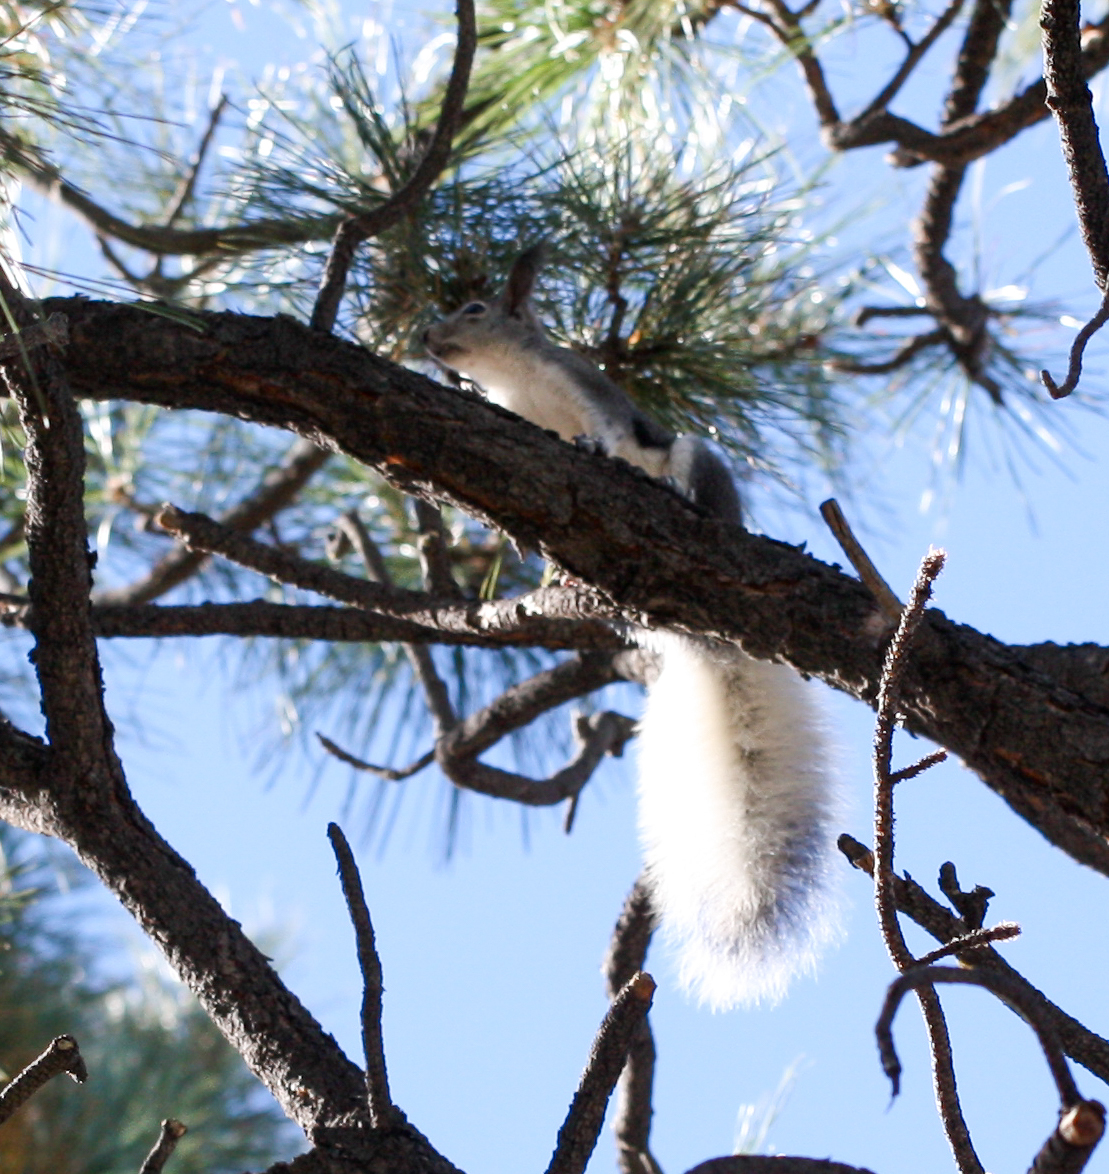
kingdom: Animalia
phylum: Chordata
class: Mammalia
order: Rodentia
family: Sciuridae
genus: Sciurus
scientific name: Sciurus aberti
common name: Abert's squirrel
